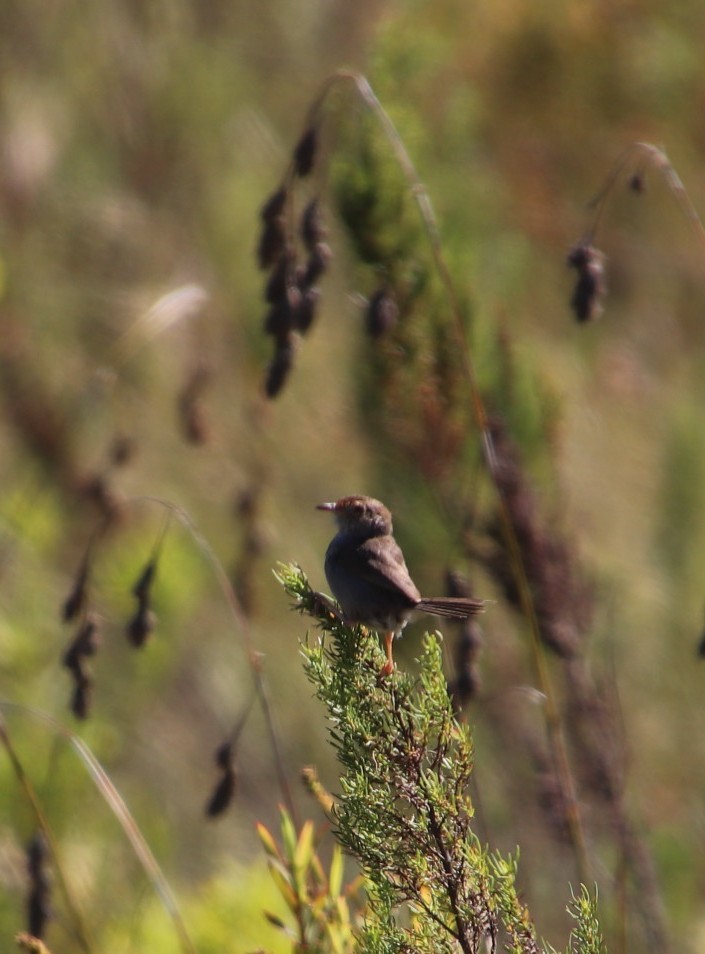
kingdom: Animalia
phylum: Chordata
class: Aves
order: Passeriformes
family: Cisticolidae
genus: Cisticola
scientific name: Cisticola fulvicapilla
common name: Neddicky
